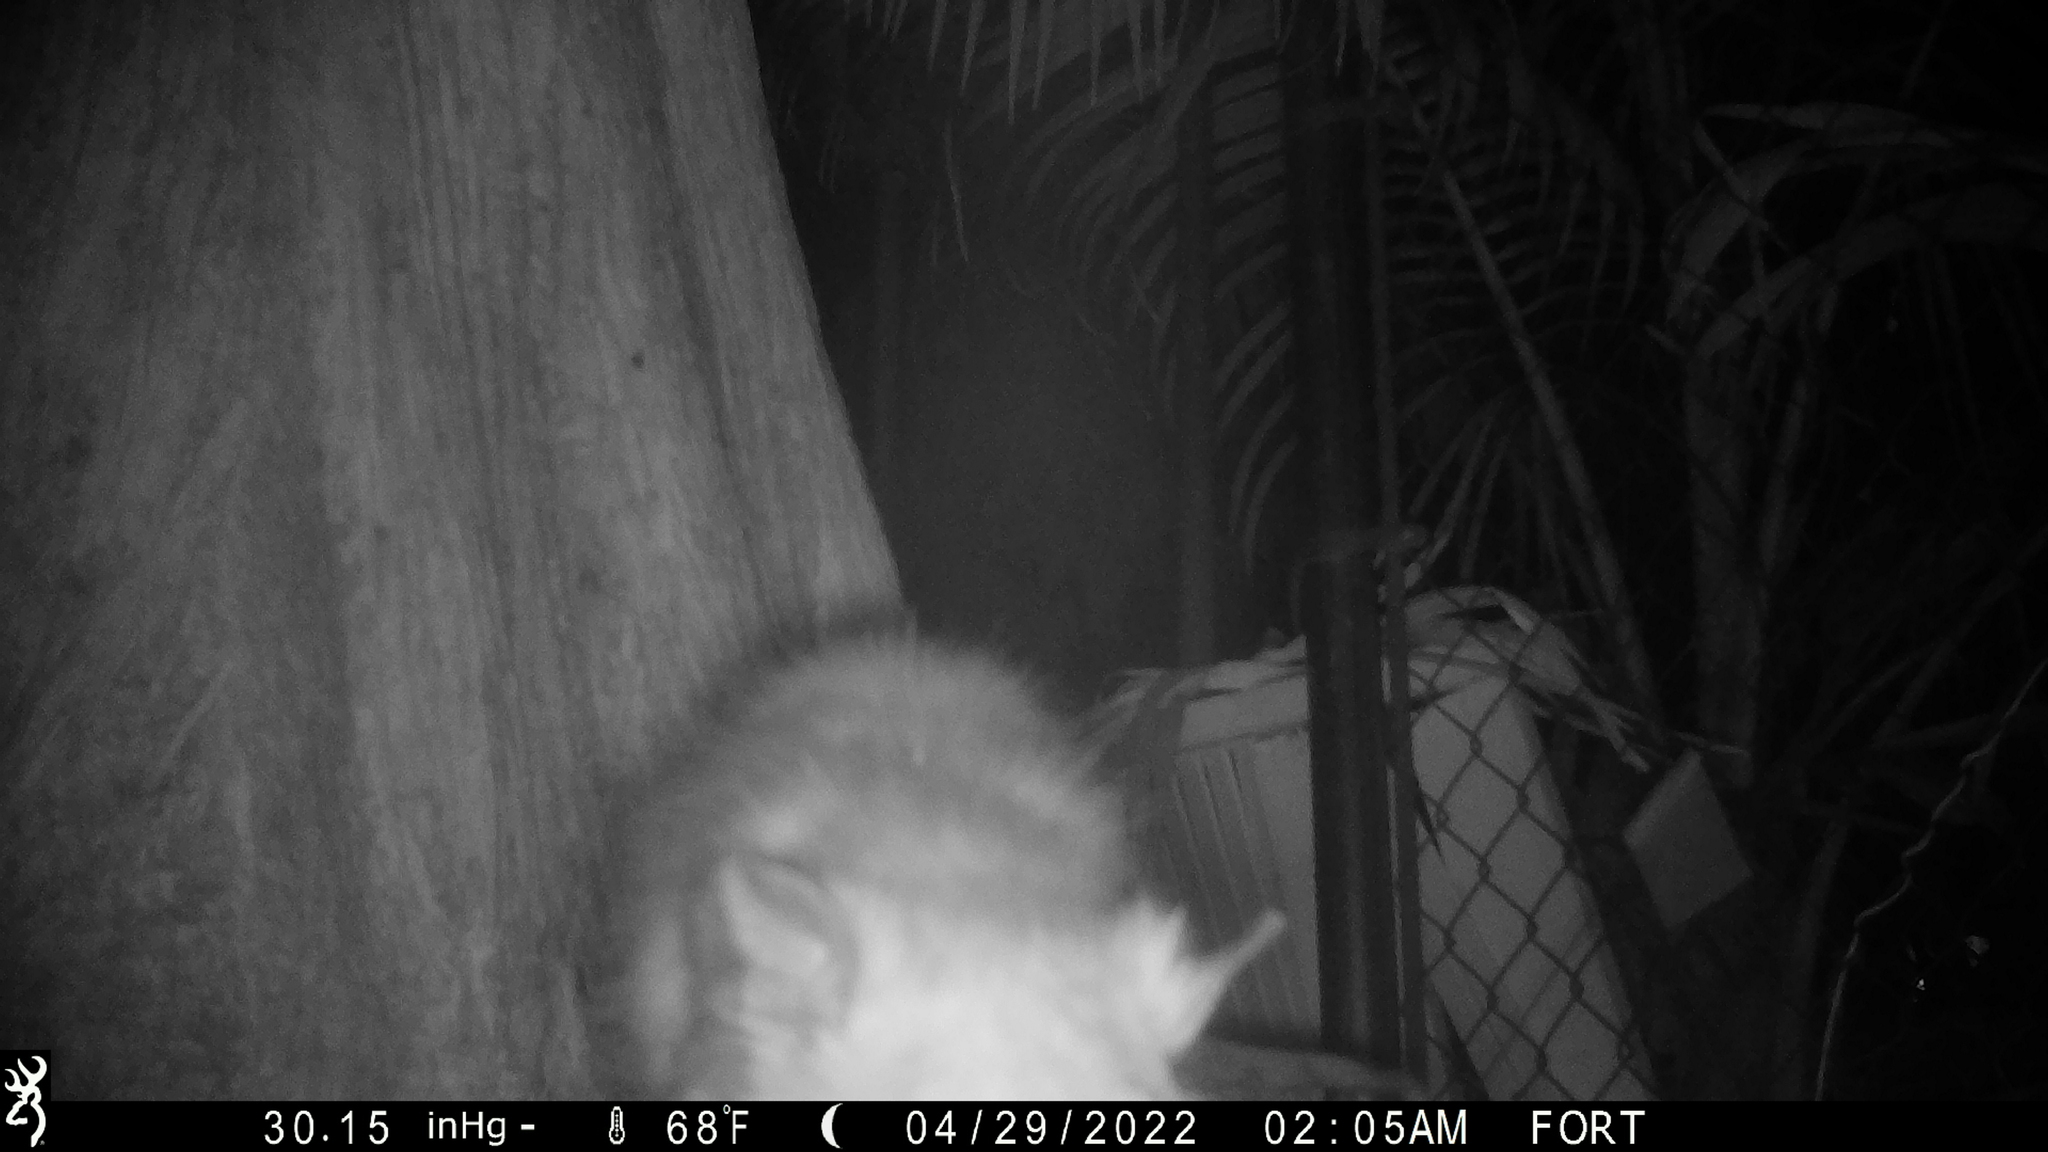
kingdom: Animalia
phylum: Chordata
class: Mammalia
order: Didelphimorphia
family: Didelphidae
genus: Didelphis
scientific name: Didelphis virginiana
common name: Virginia opossum
